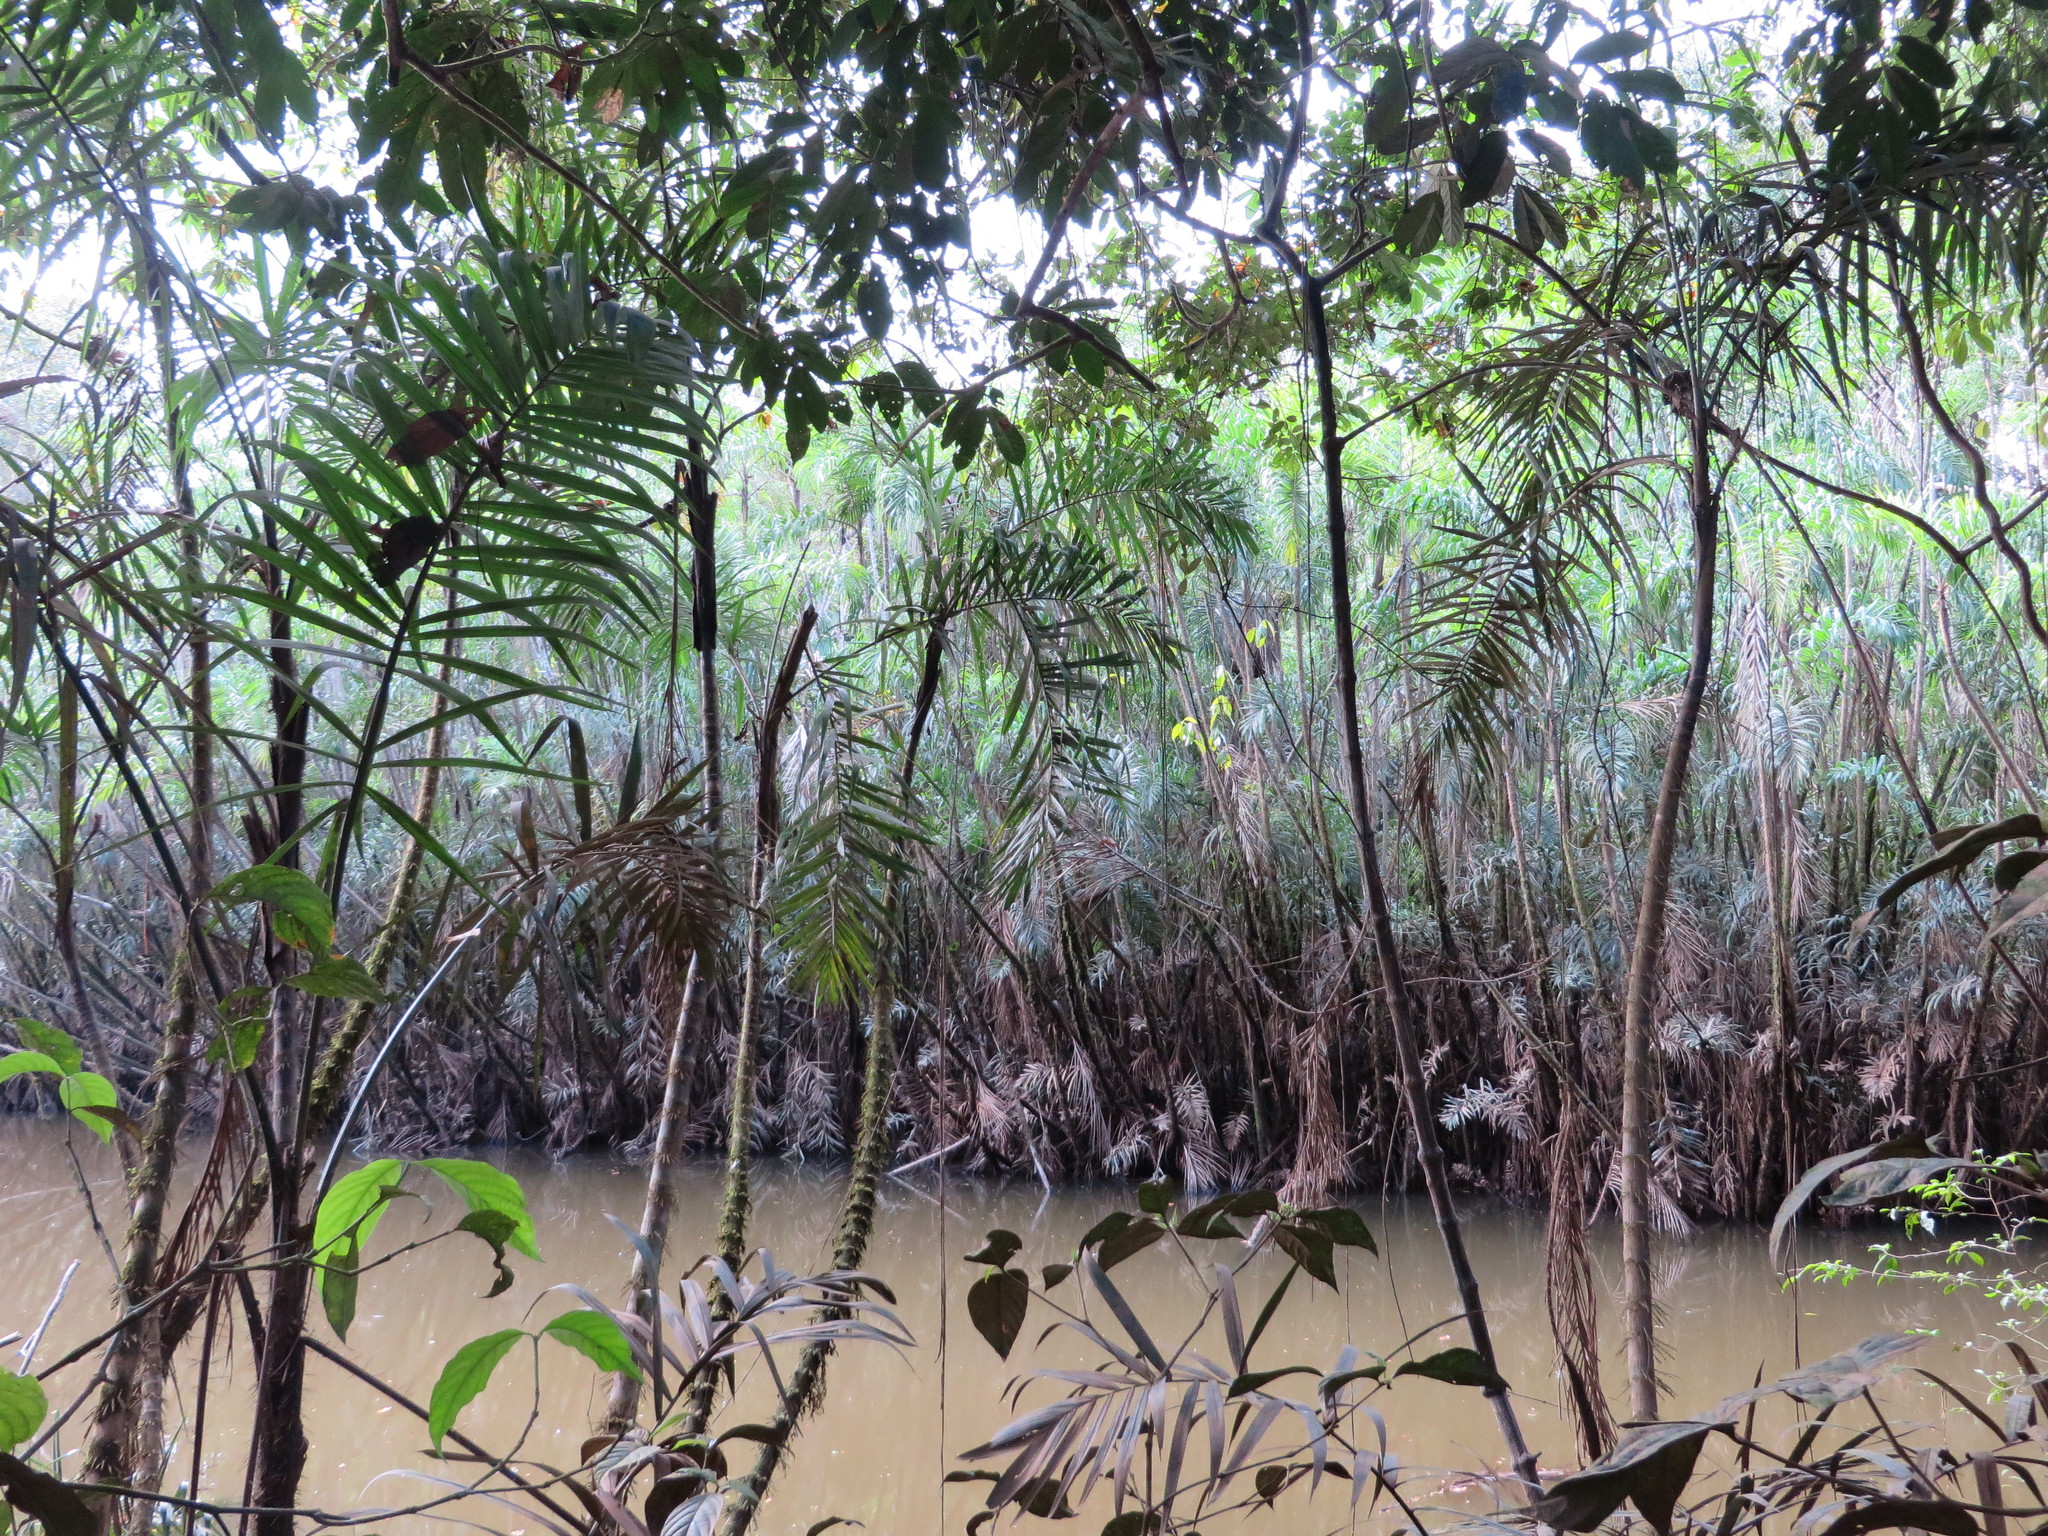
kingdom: Plantae
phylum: Tracheophyta
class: Liliopsida
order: Arecales
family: Arecaceae
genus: Bactris
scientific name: Bactris riparia
